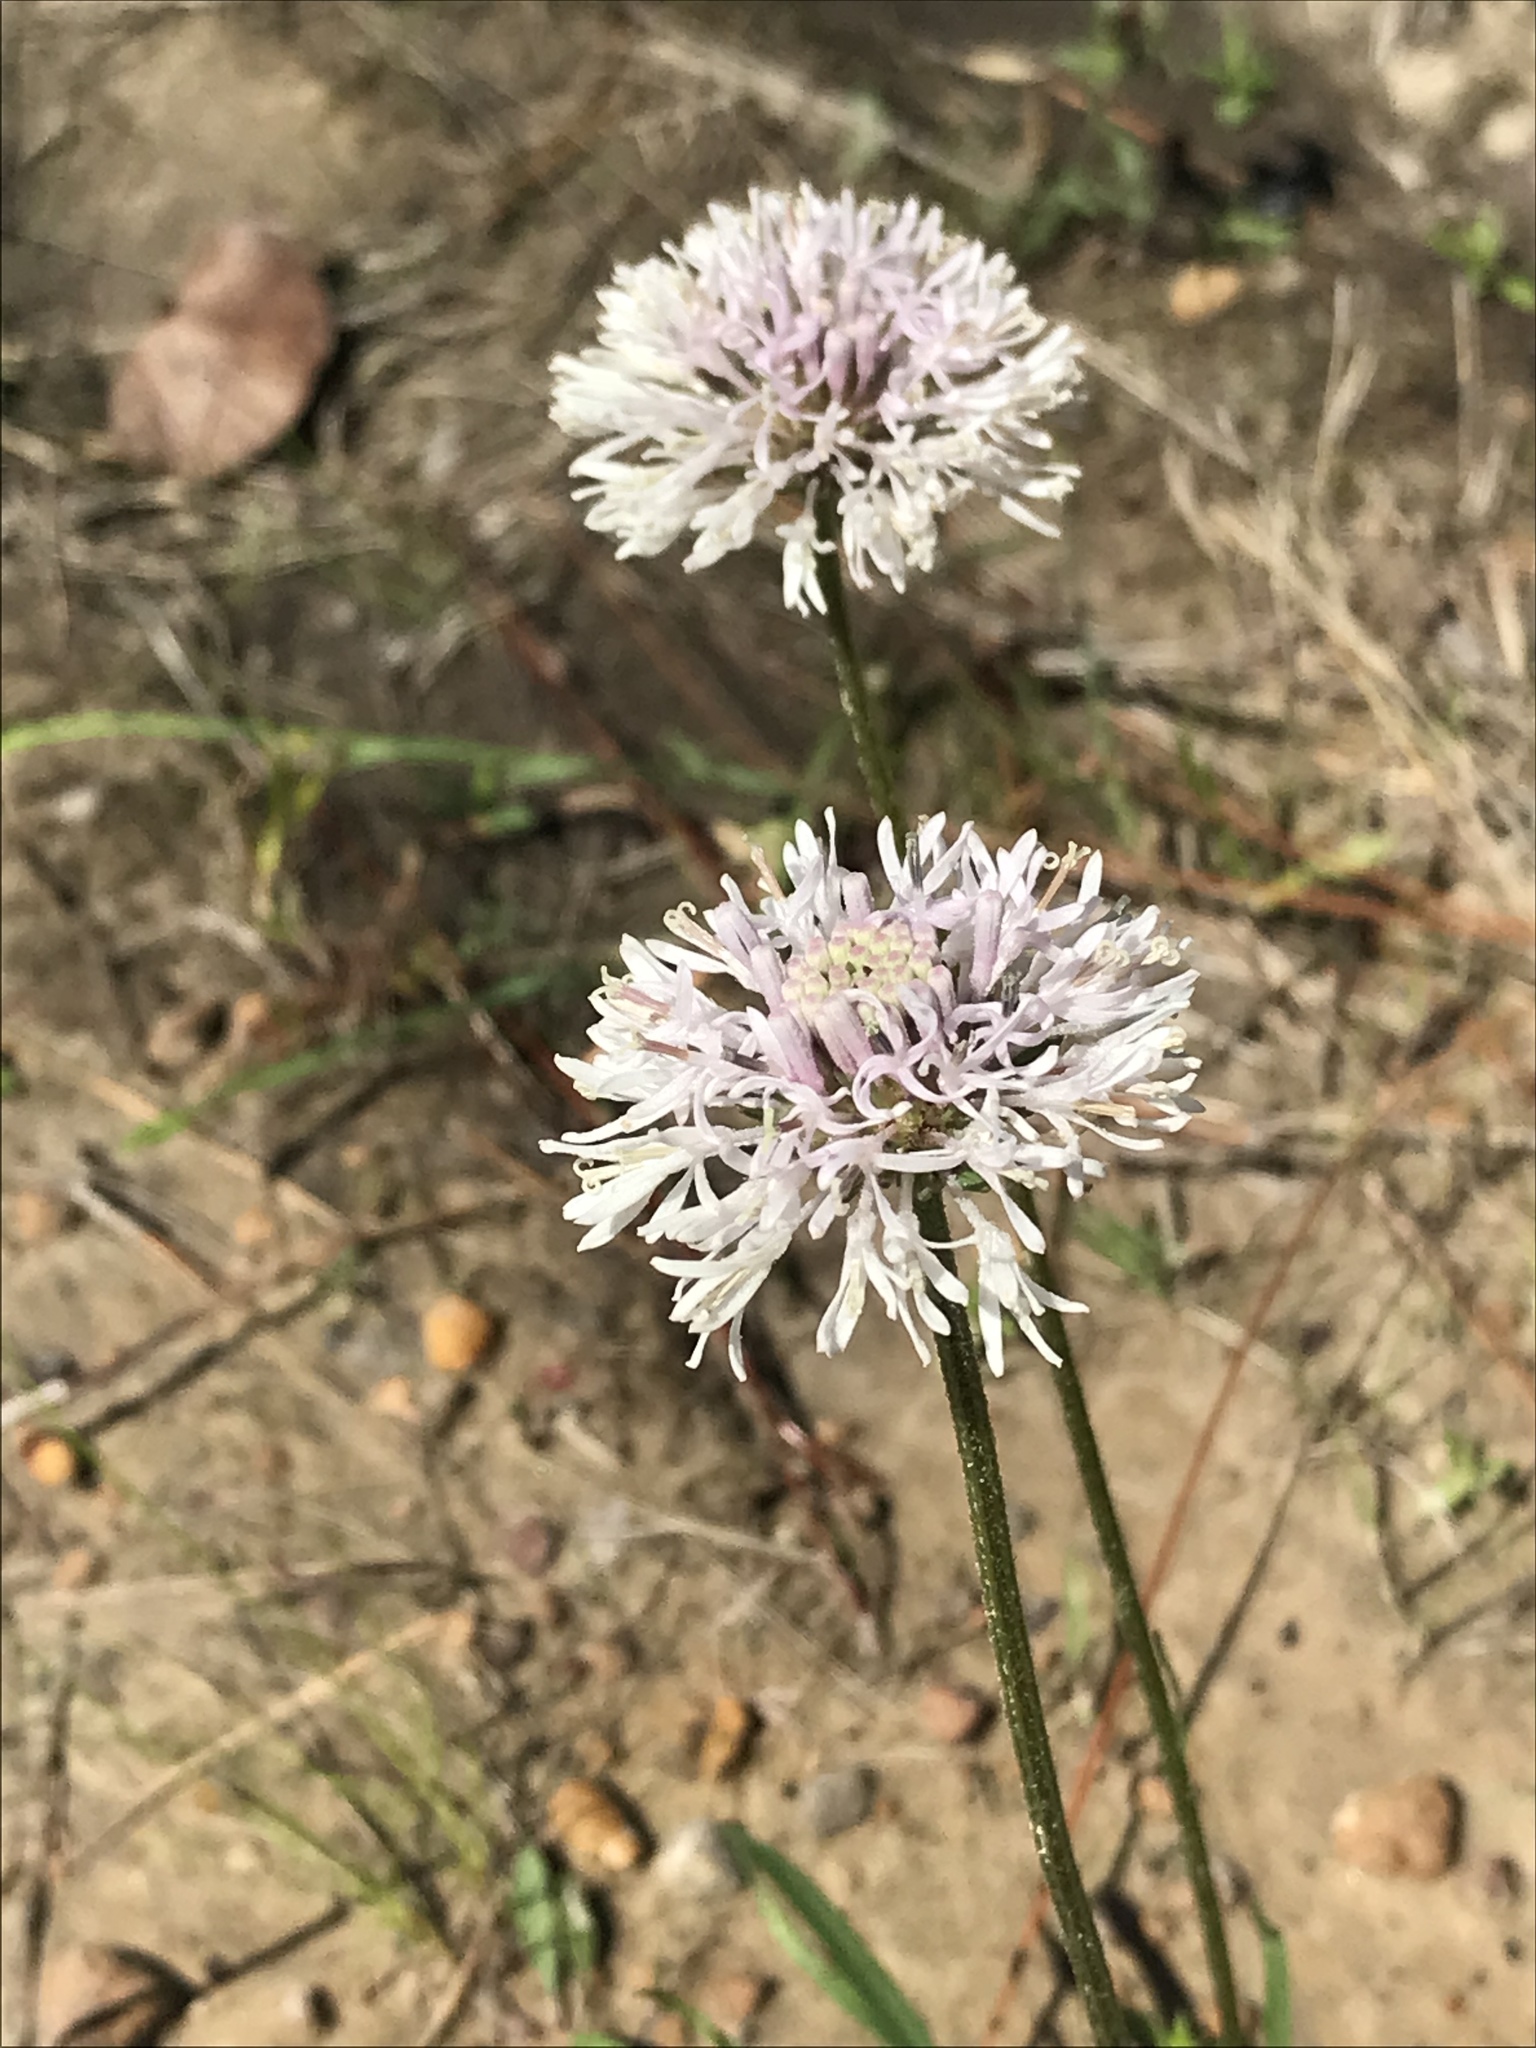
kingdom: Plantae
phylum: Tracheophyta
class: Magnoliopsida
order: Asterales
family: Asteraceae
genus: Marshallia
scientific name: Marshallia graminifolia
